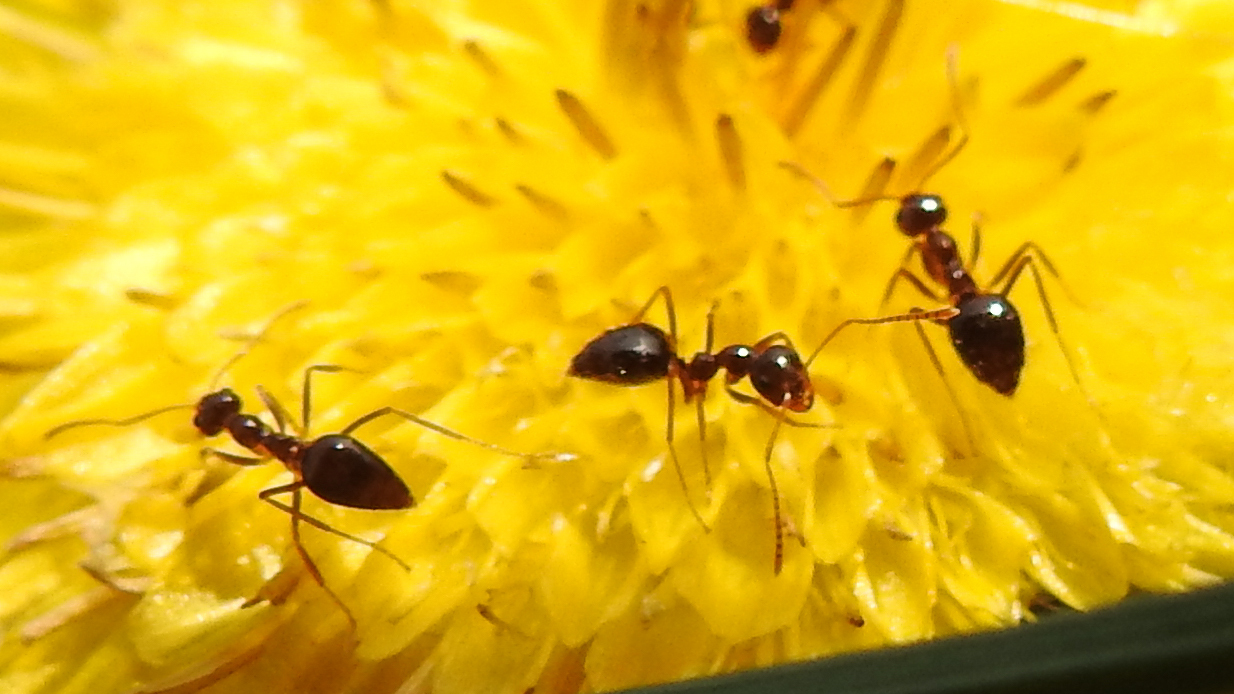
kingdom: Animalia
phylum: Arthropoda
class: Insecta
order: Hymenoptera
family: Formicidae
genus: Prenolepis
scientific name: Prenolepis imparis
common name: Small honey ant
